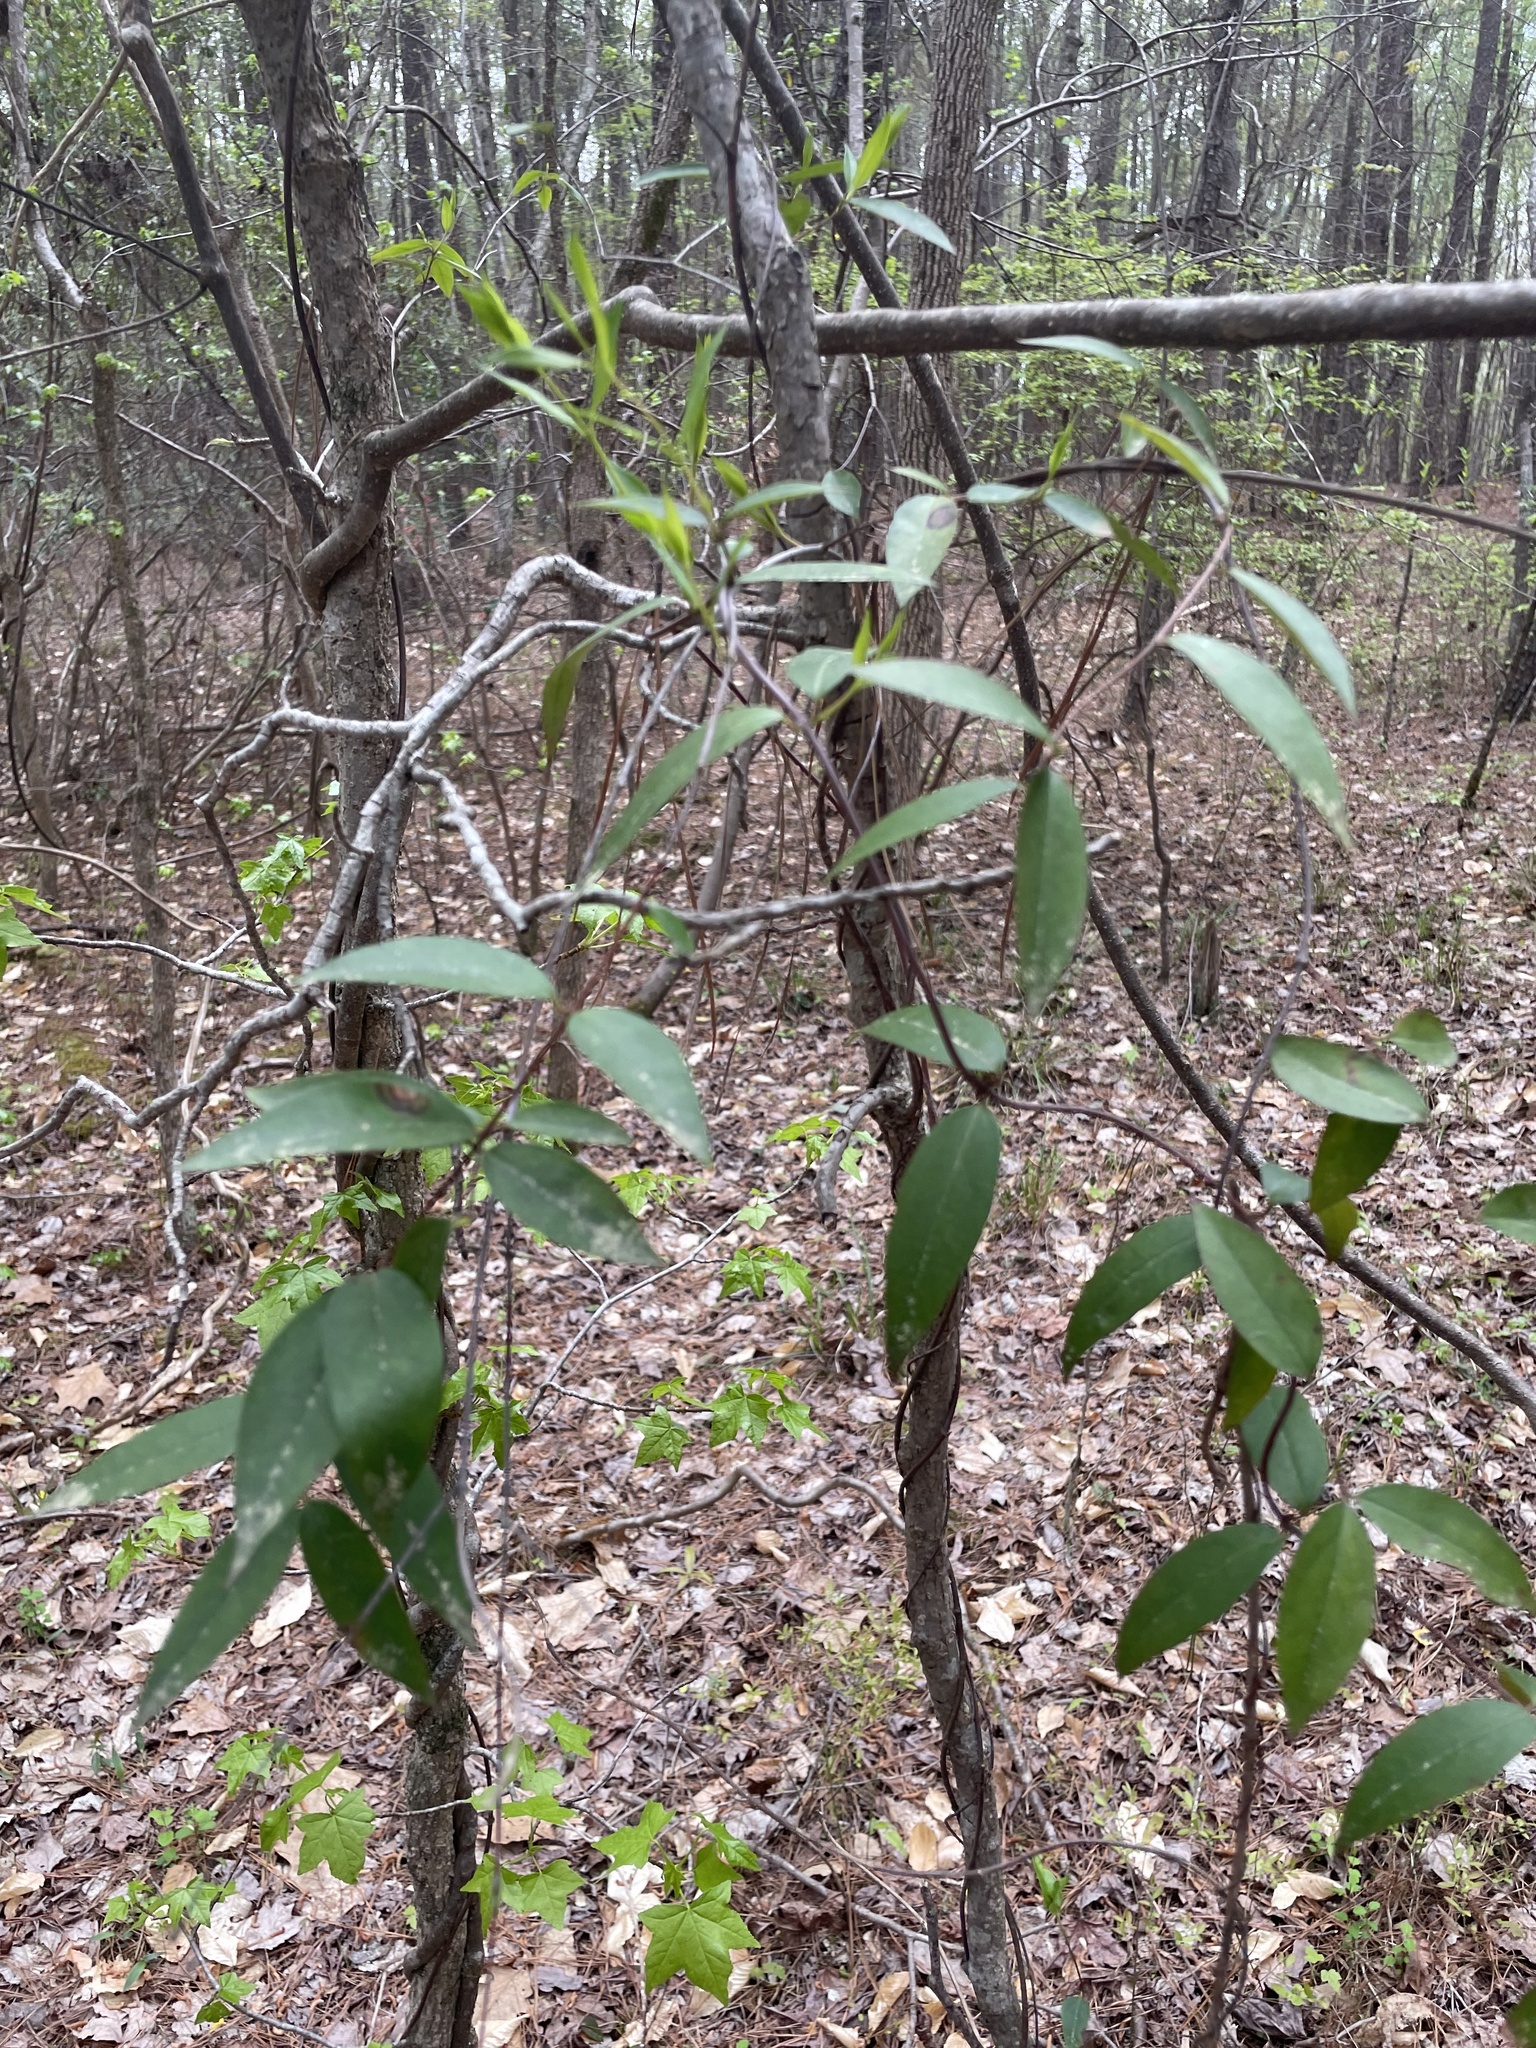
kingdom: Plantae
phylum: Tracheophyta
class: Magnoliopsida
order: Gentianales
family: Gelsemiaceae
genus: Gelsemium
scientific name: Gelsemium sempervirens
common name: Carolina-jasmine
